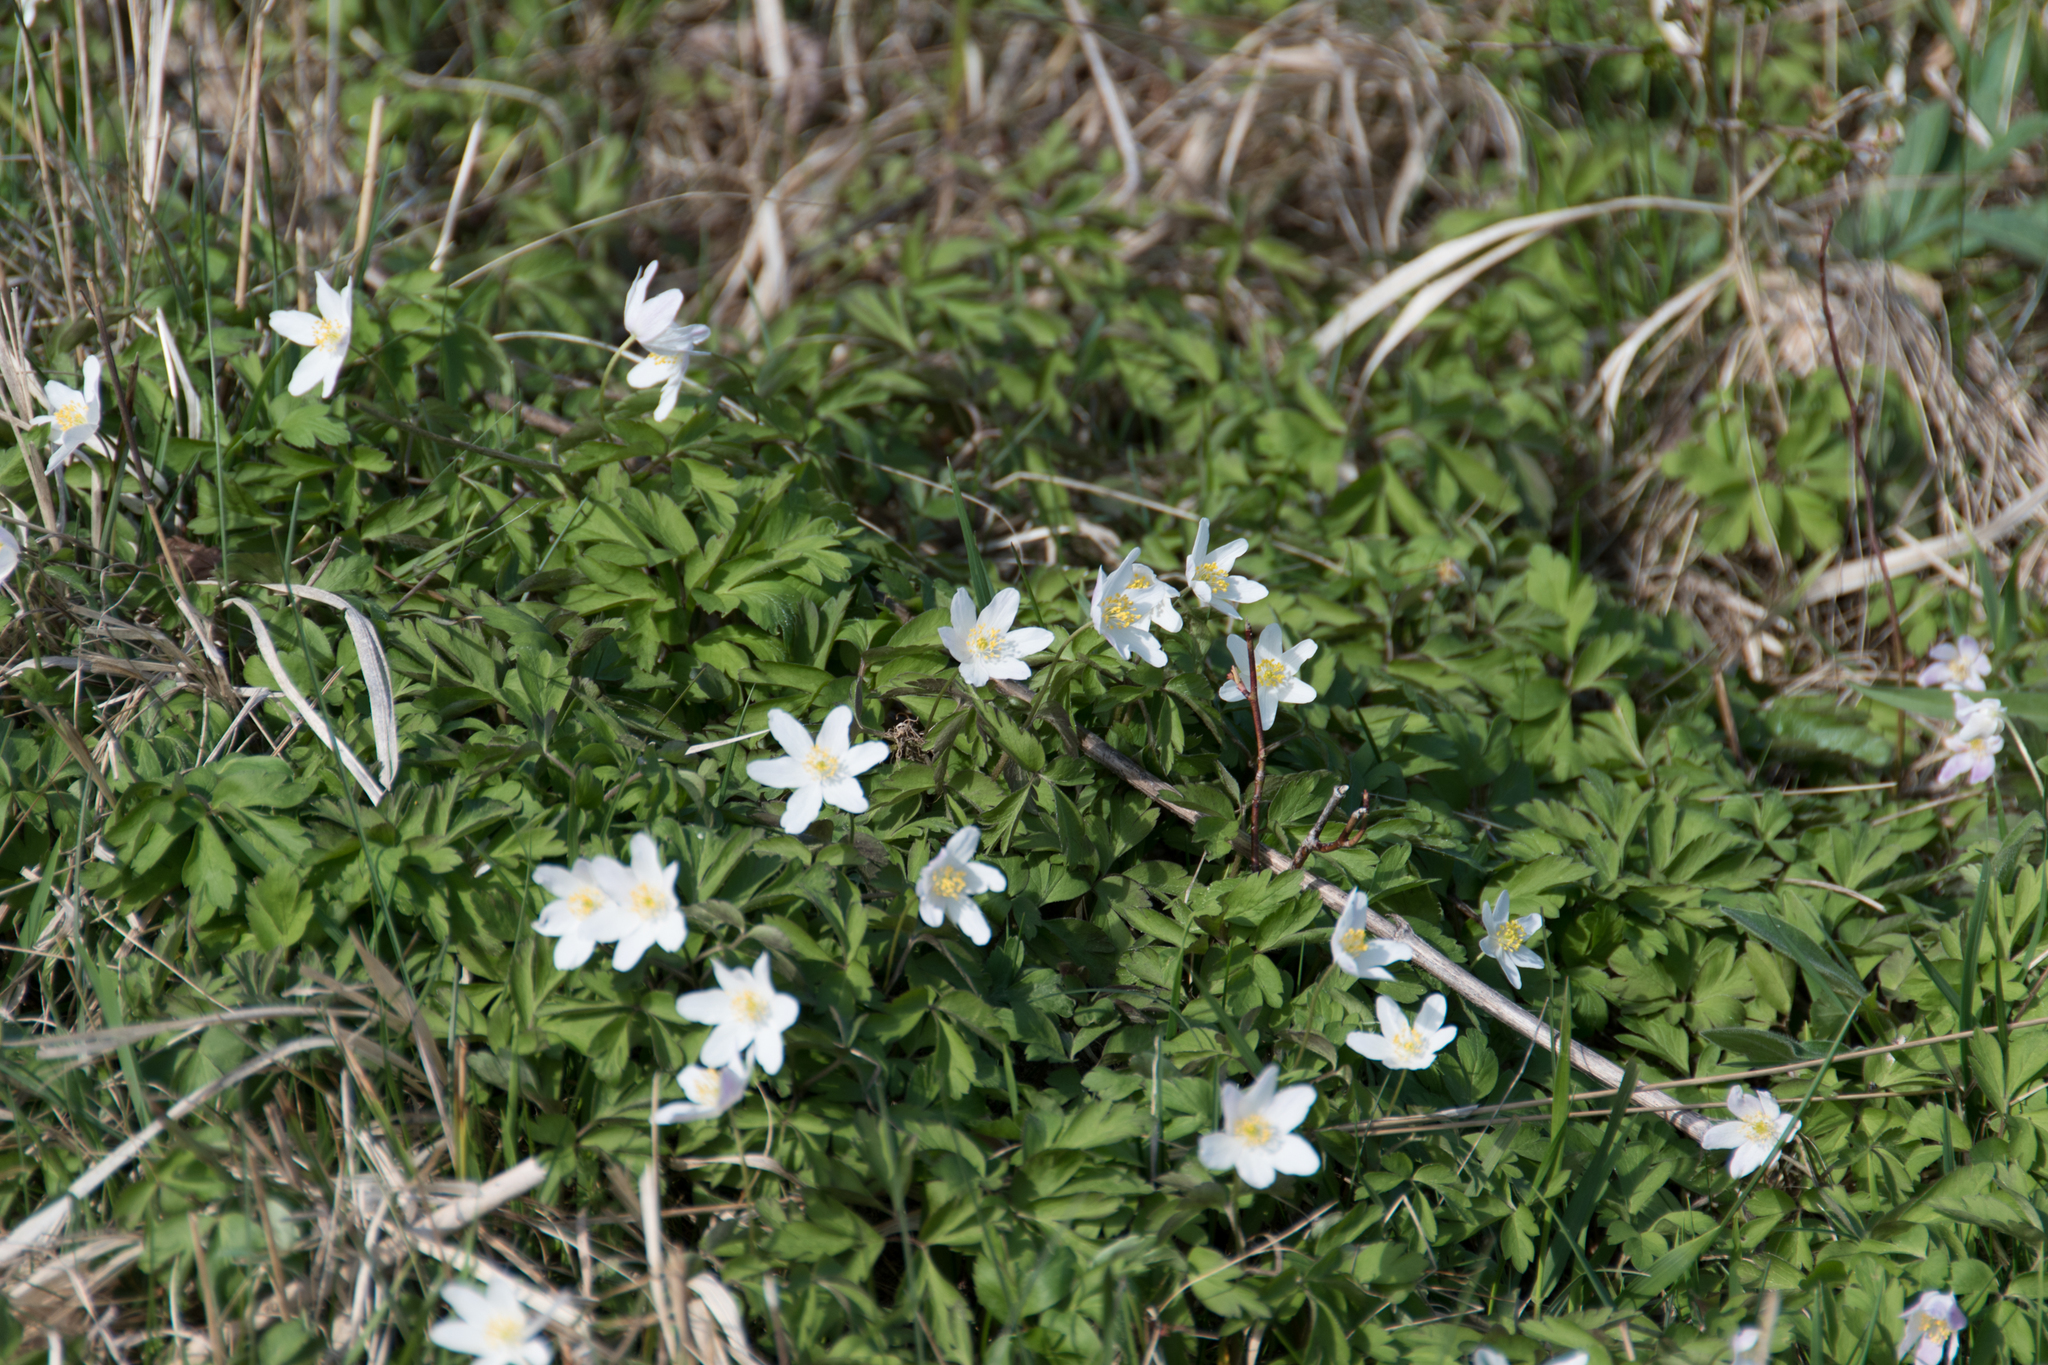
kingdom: Plantae
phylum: Tracheophyta
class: Magnoliopsida
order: Ranunculales
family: Ranunculaceae
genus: Anemone
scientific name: Anemone nemorosa
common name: Wood anemone
